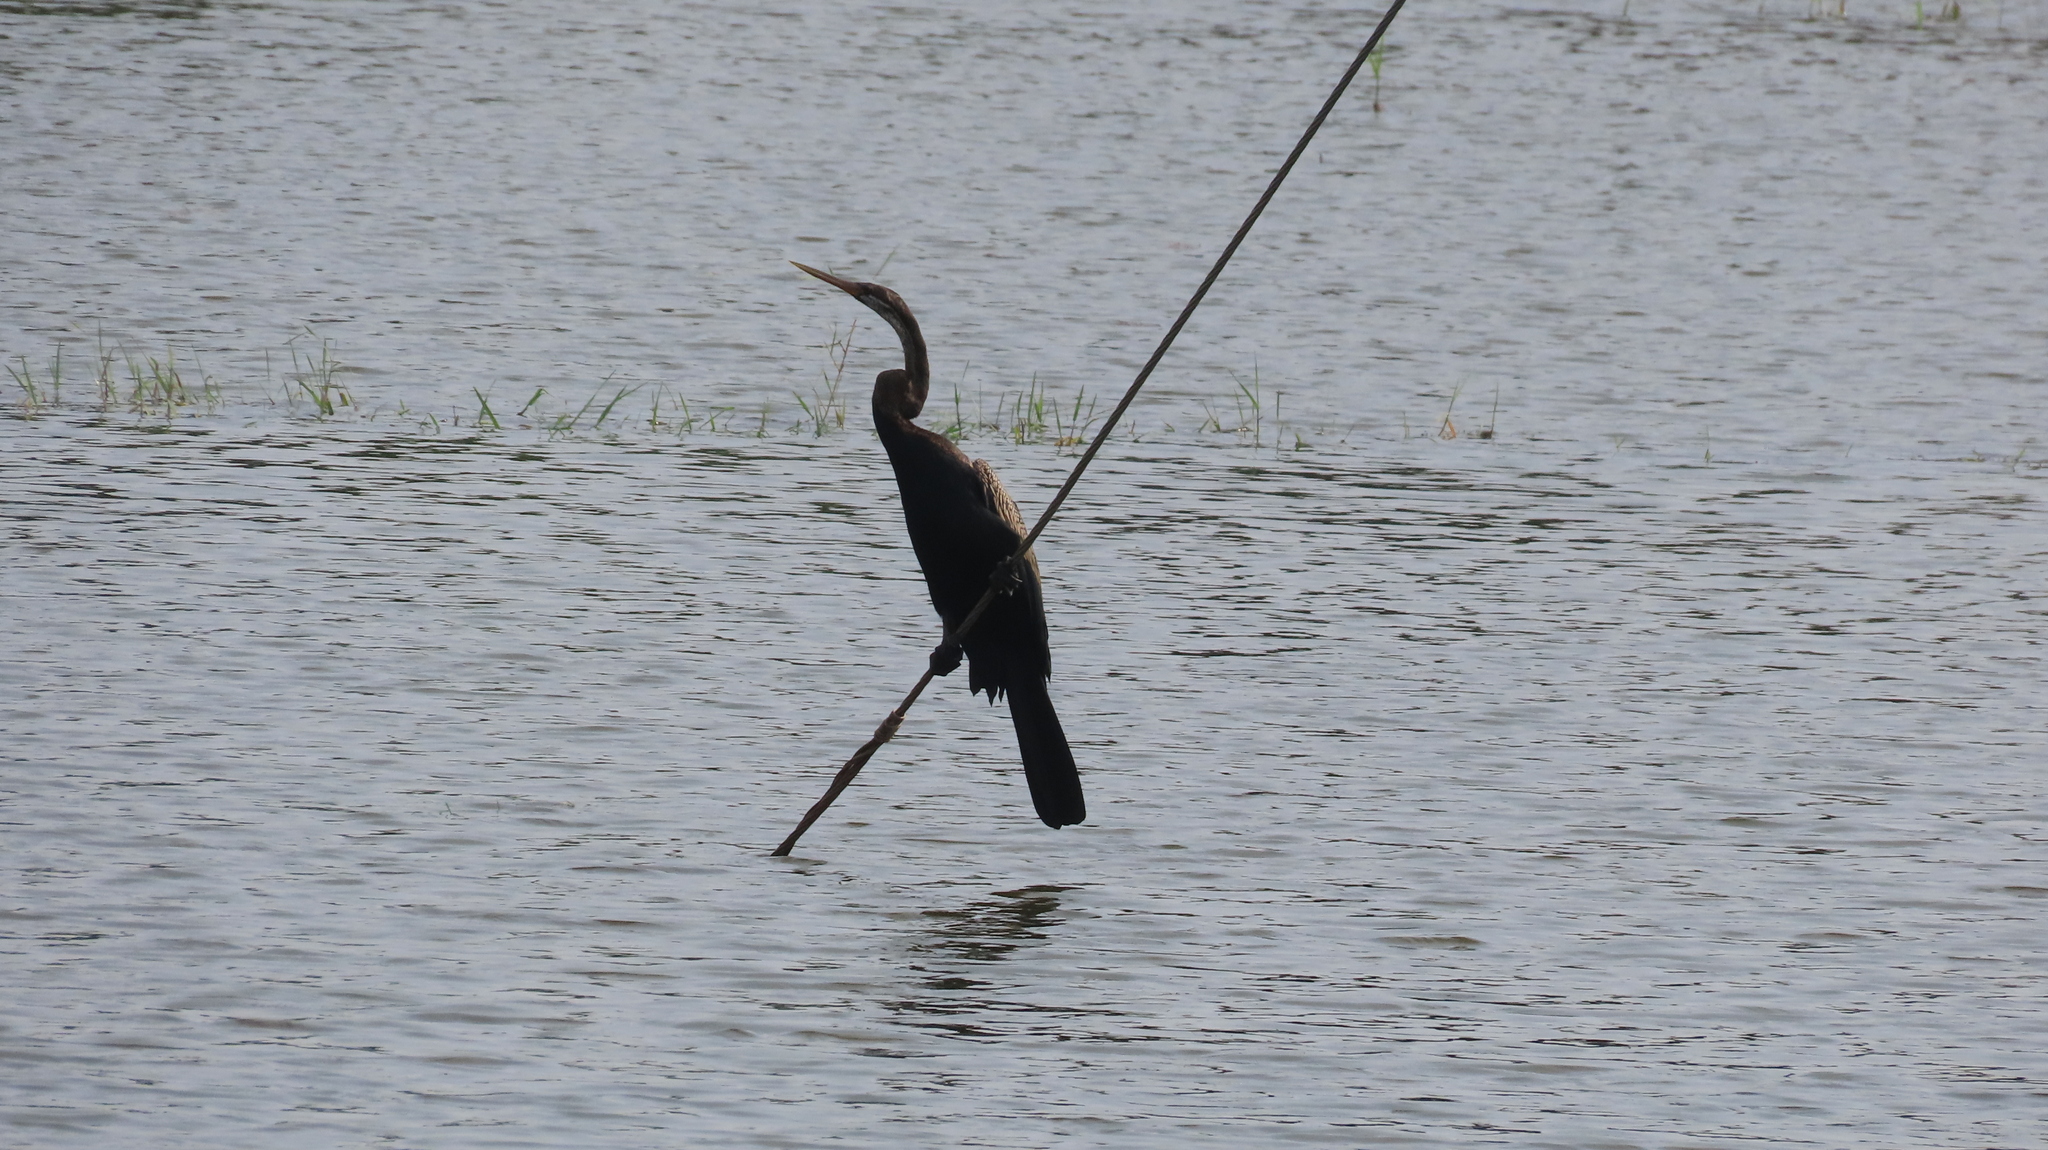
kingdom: Animalia
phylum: Chordata
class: Aves
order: Suliformes
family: Anhingidae
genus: Anhinga
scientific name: Anhinga melanogaster
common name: Oriental darter
